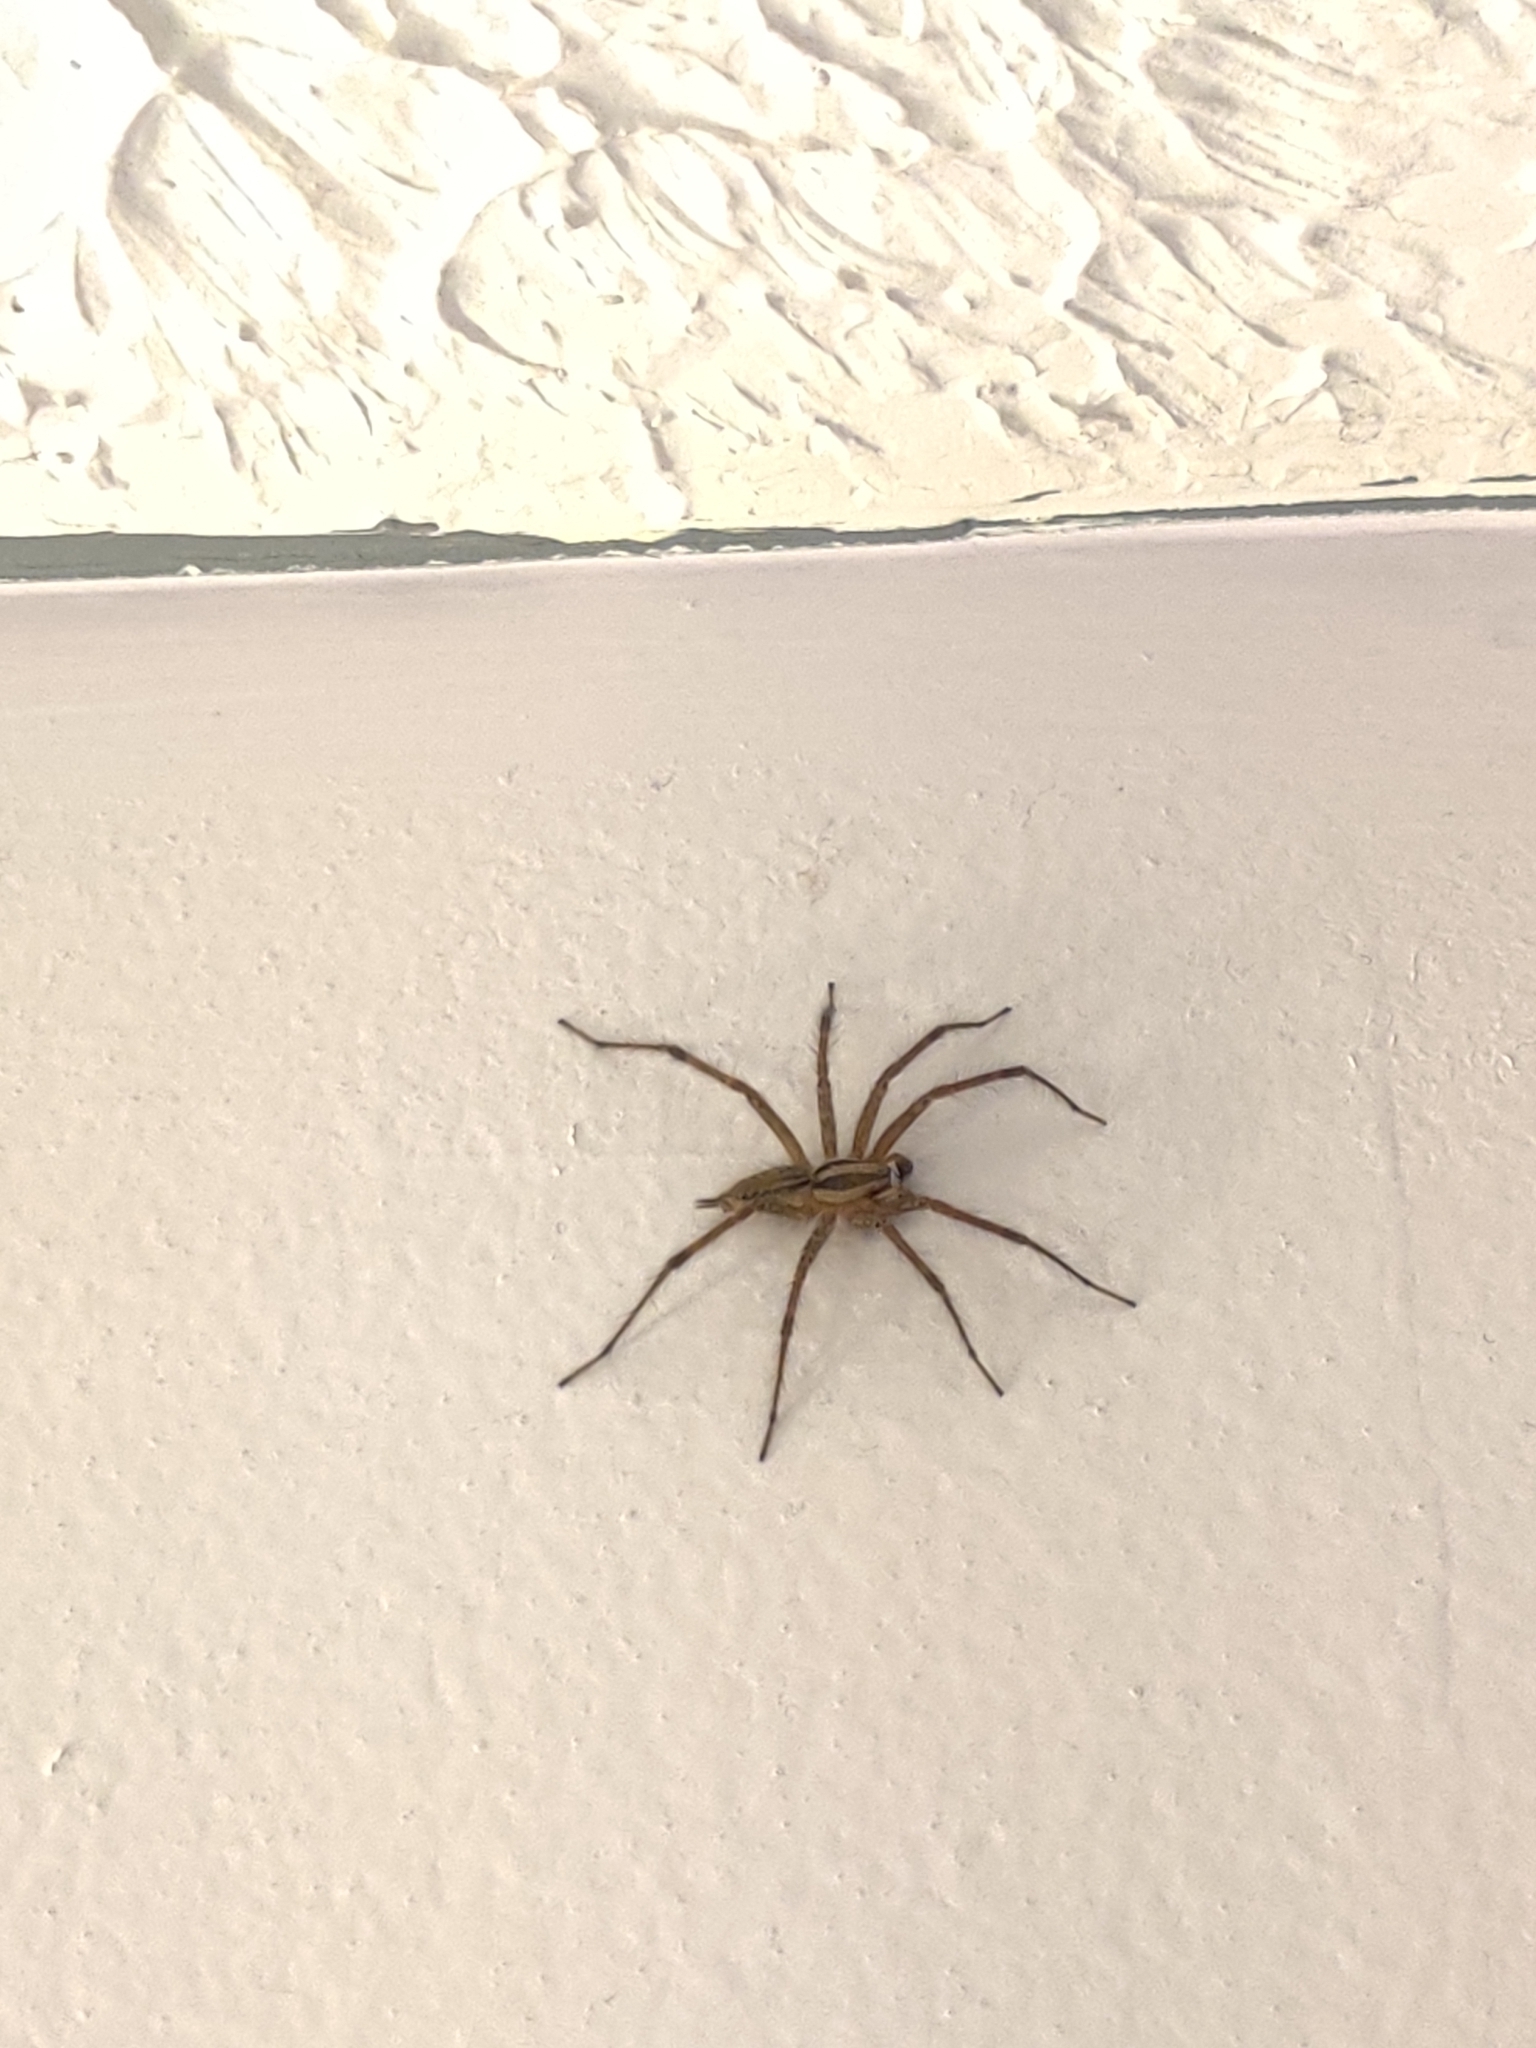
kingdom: Animalia
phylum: Arthropoda
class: Arachnida
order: Araneae
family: Agelenidae
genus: Agelenopsis
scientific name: Agelenopsis
